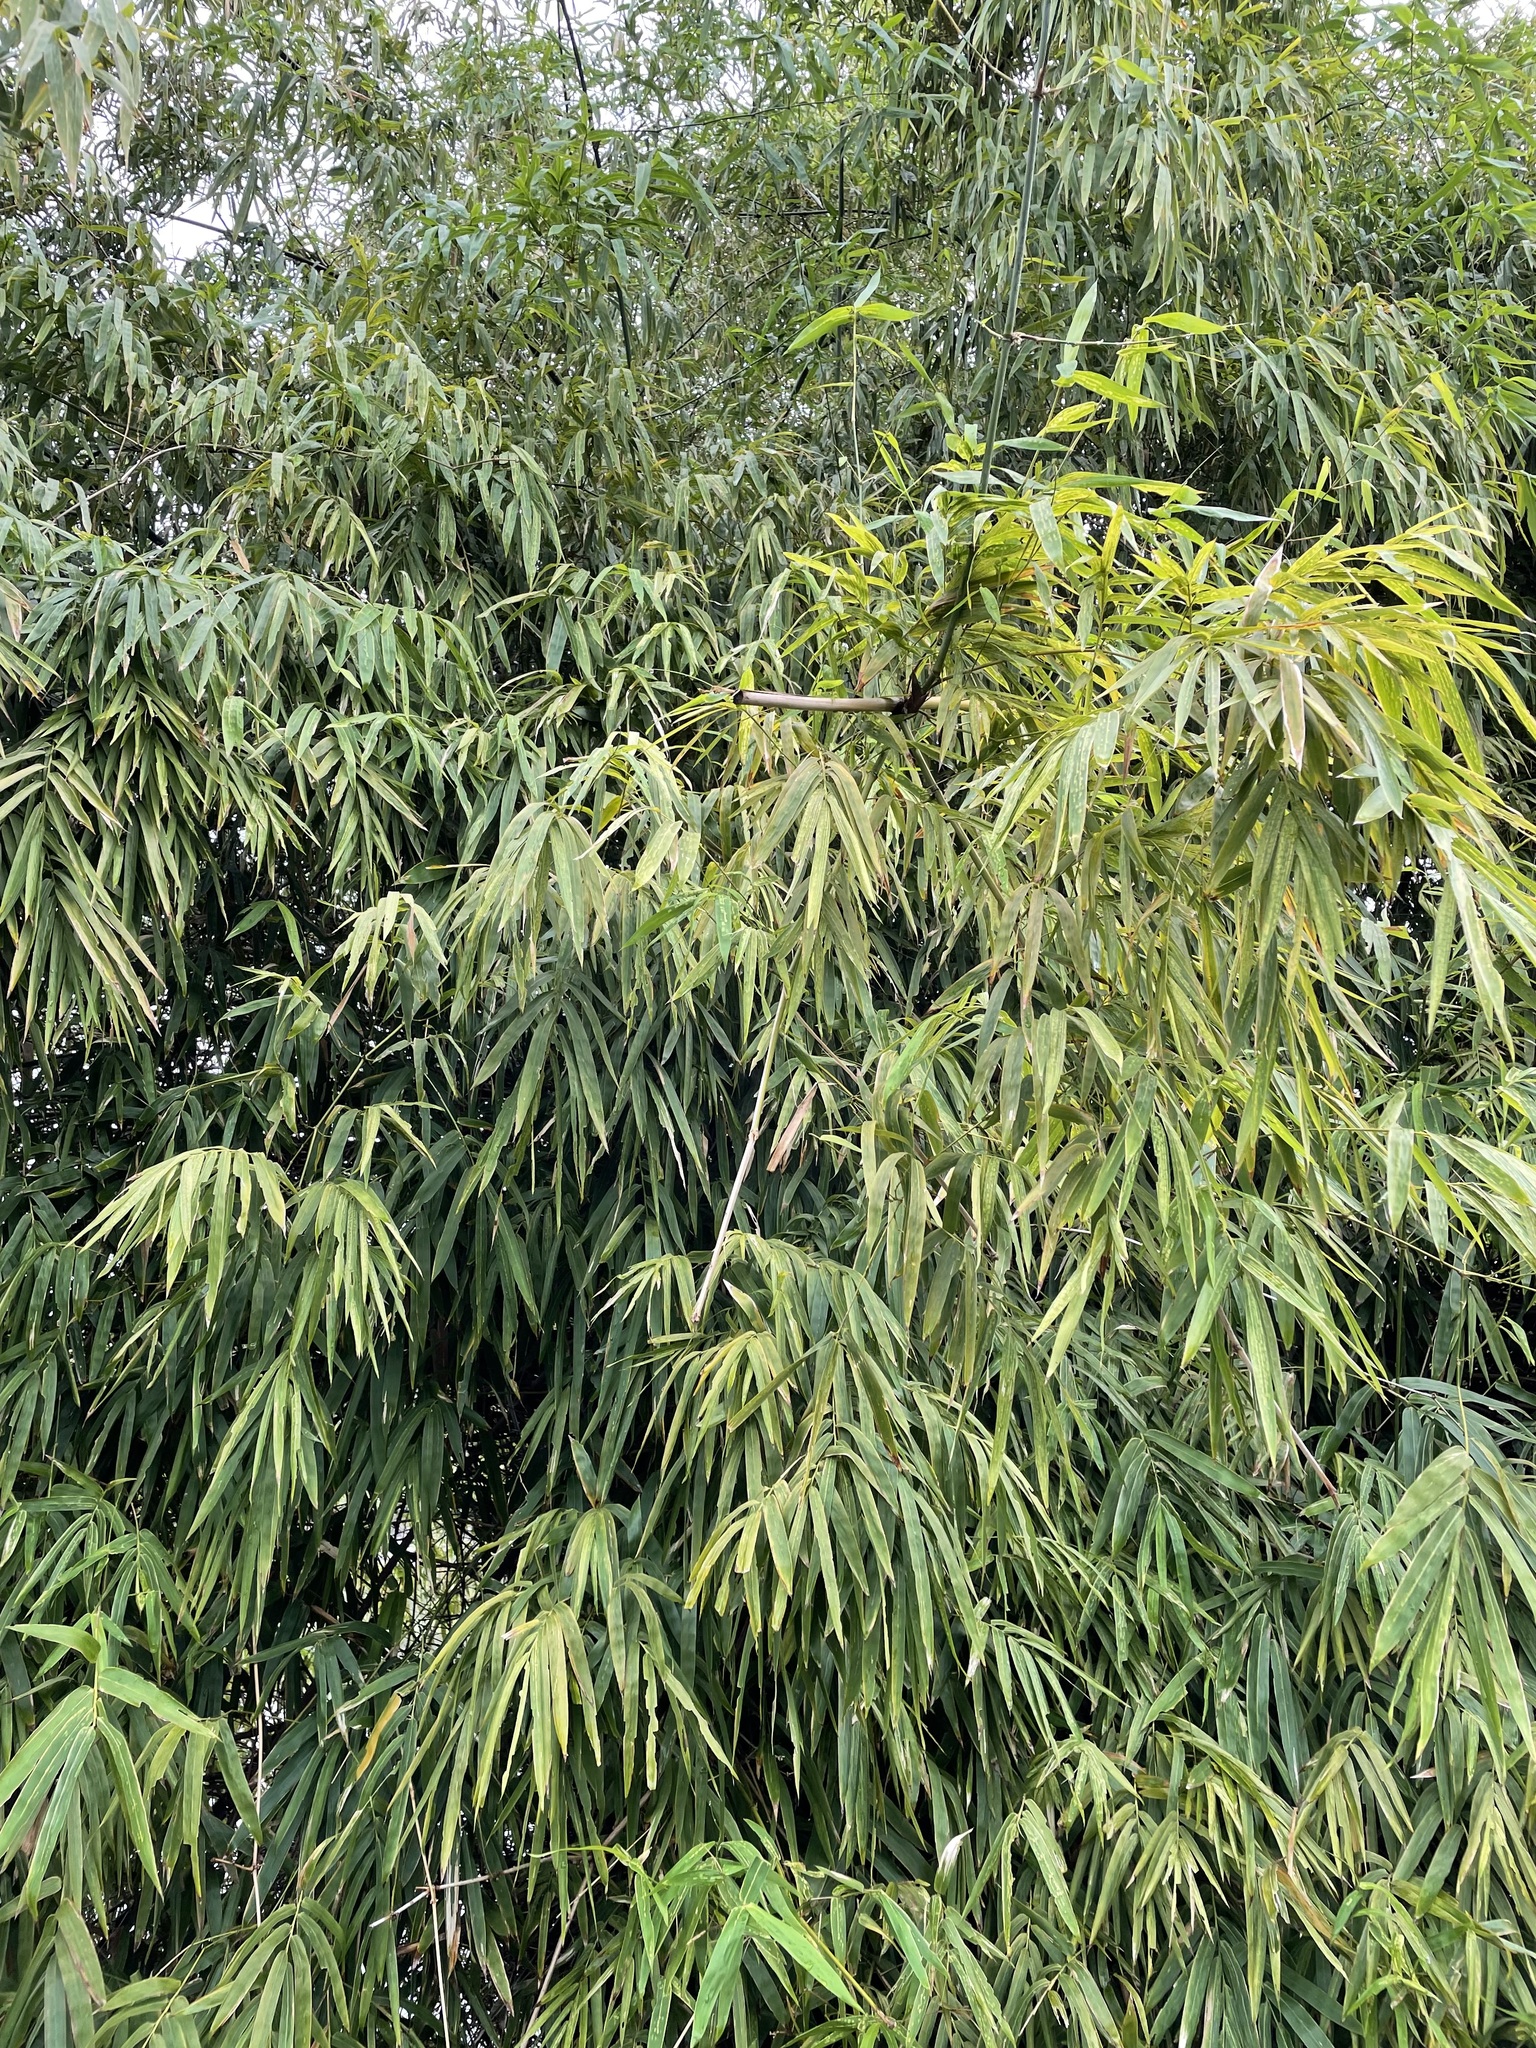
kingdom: Plantae
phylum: Tracheophyta
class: Liliopsida
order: Poales
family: Poaceae
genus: Bambusa
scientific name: Bambusa spinosa
